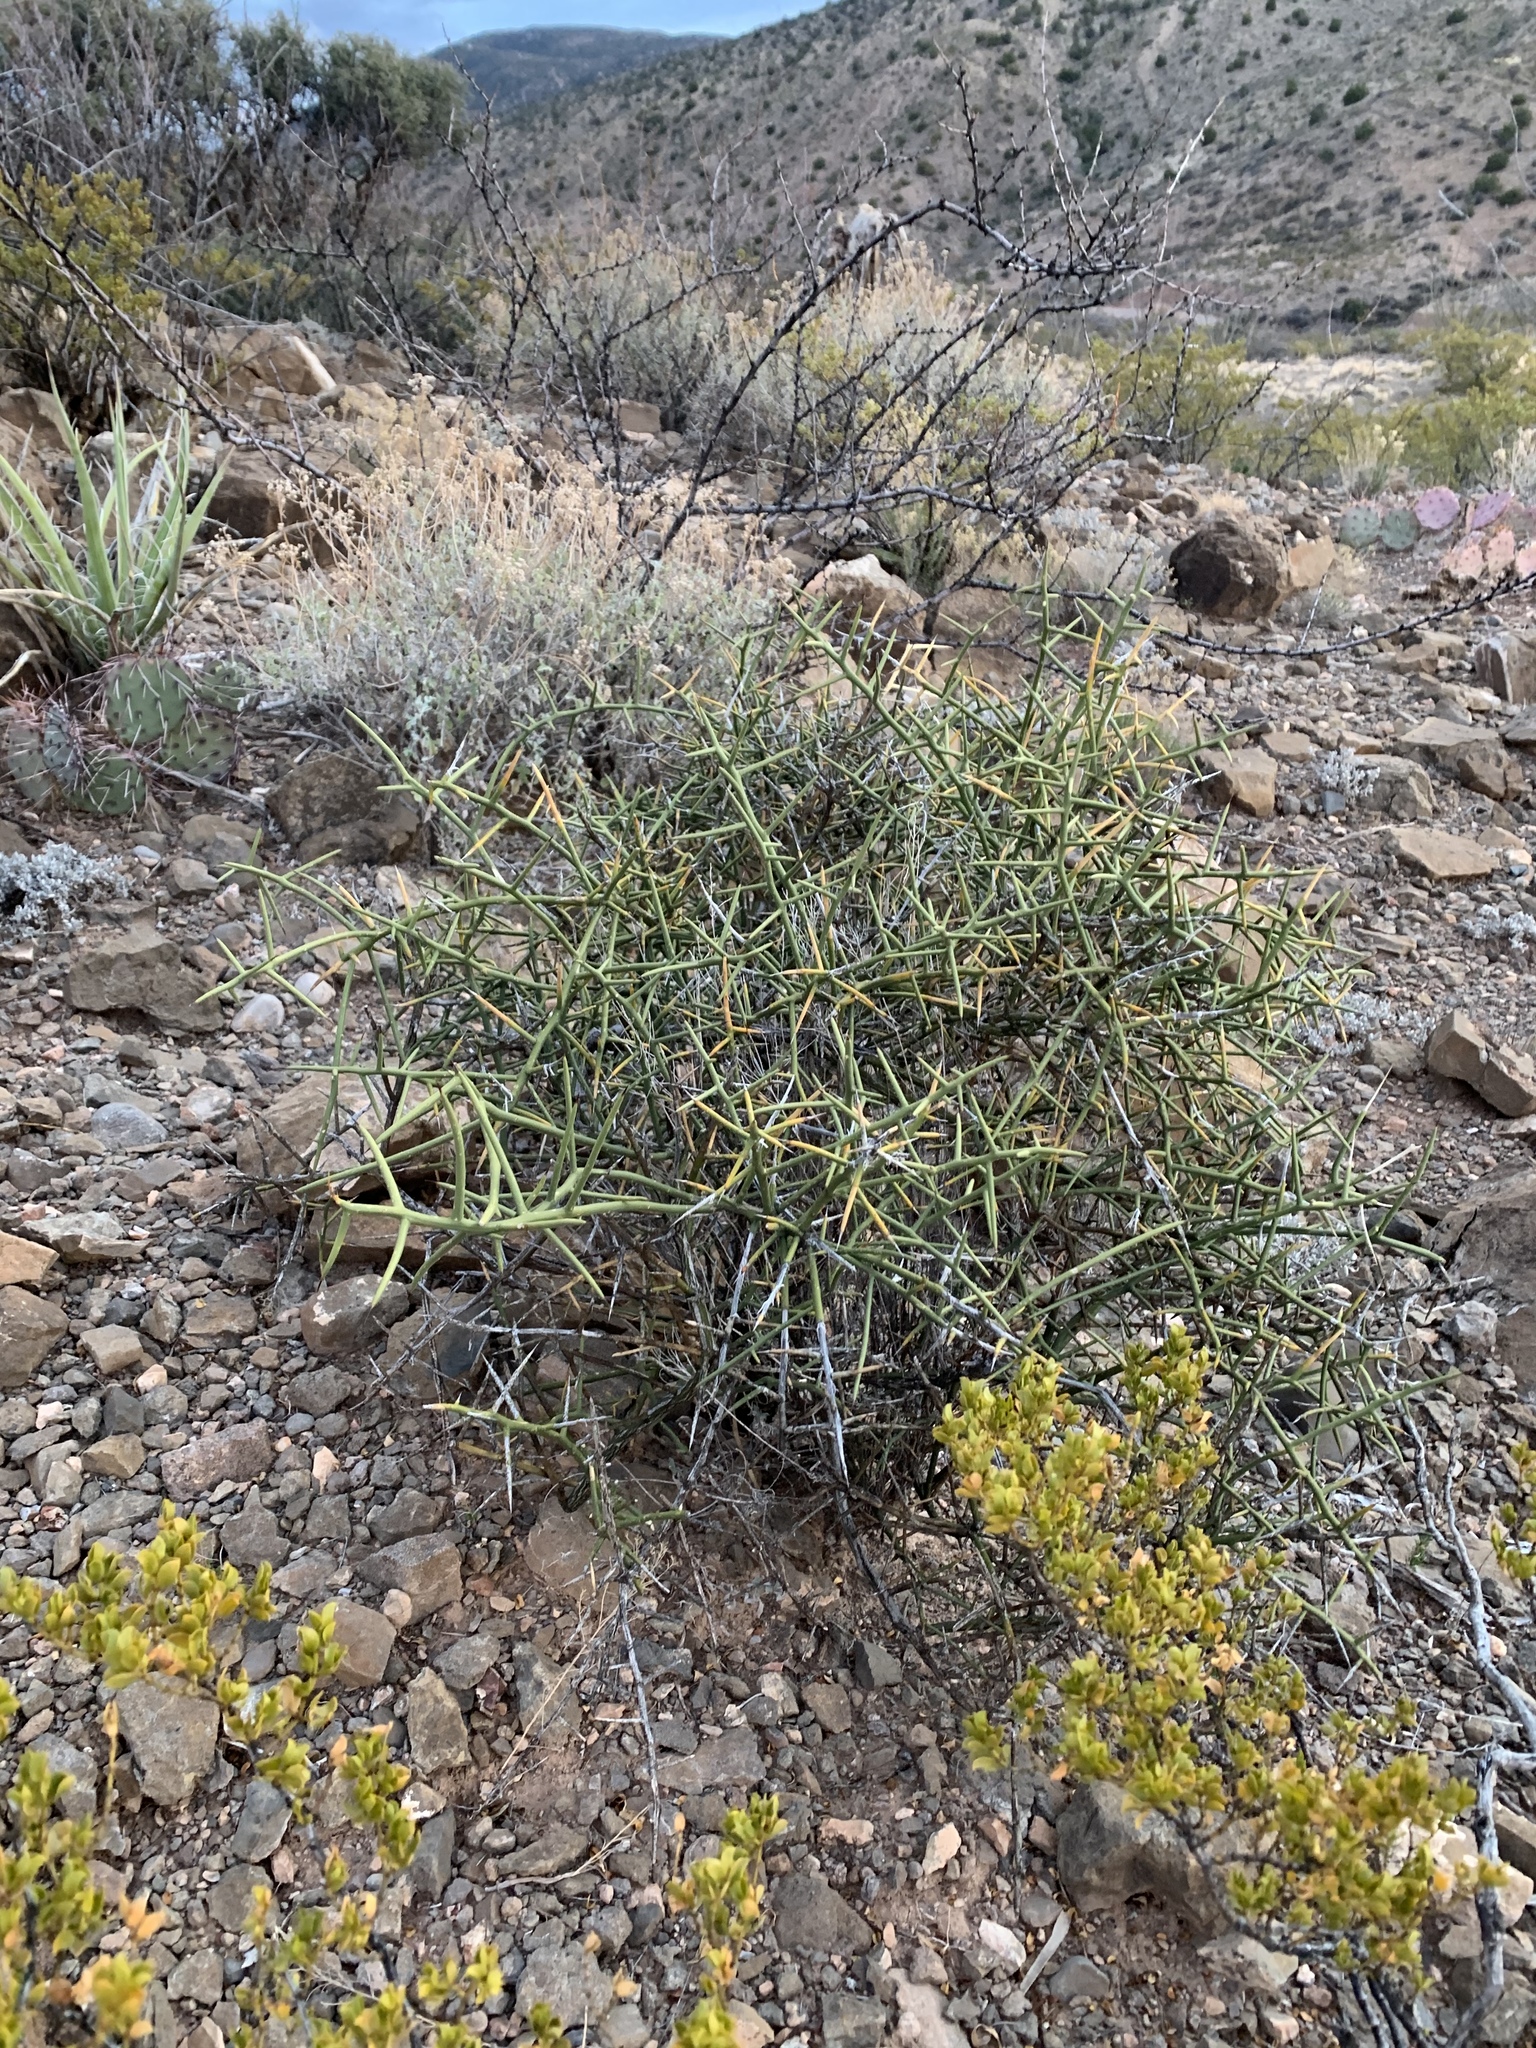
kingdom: Plantae
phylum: Tracheophyta
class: Magnoliopsida
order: Brassicales
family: Koeberliniaceae
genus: Koeberlinia
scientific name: Koeberlinia spinosa
